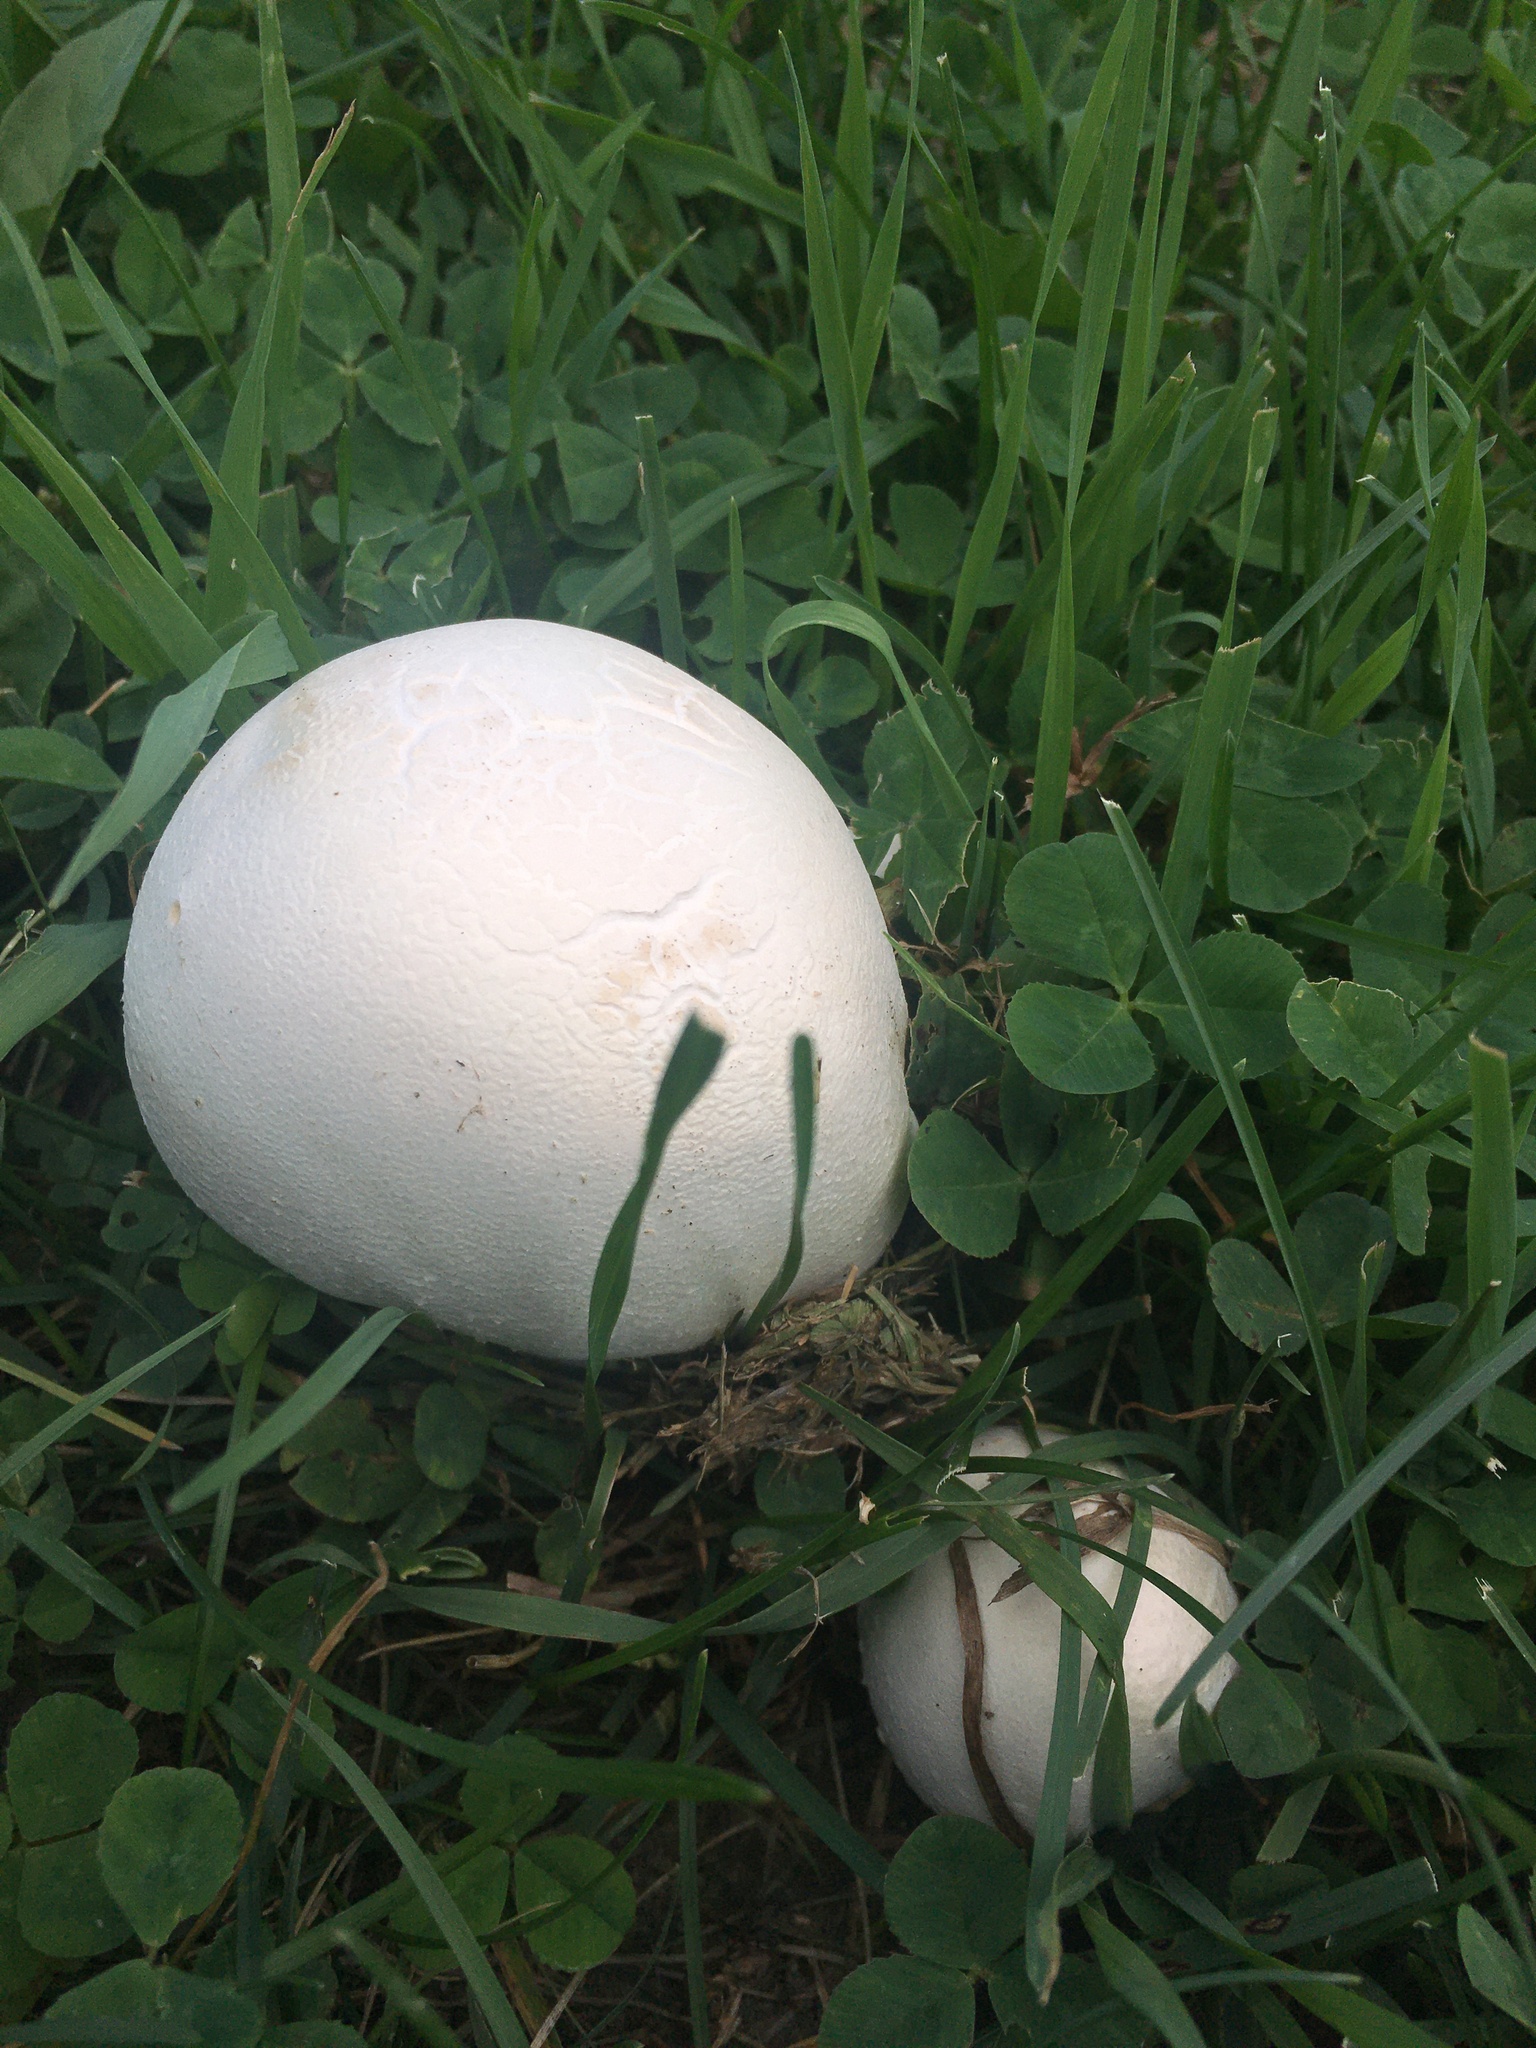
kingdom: Fungi
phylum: Basidiomycota
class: Agaricomycetes
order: Agaricales
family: Lycoperdaceae
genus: Calvatia
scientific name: Calvatia gigantea
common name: Giant puffball
